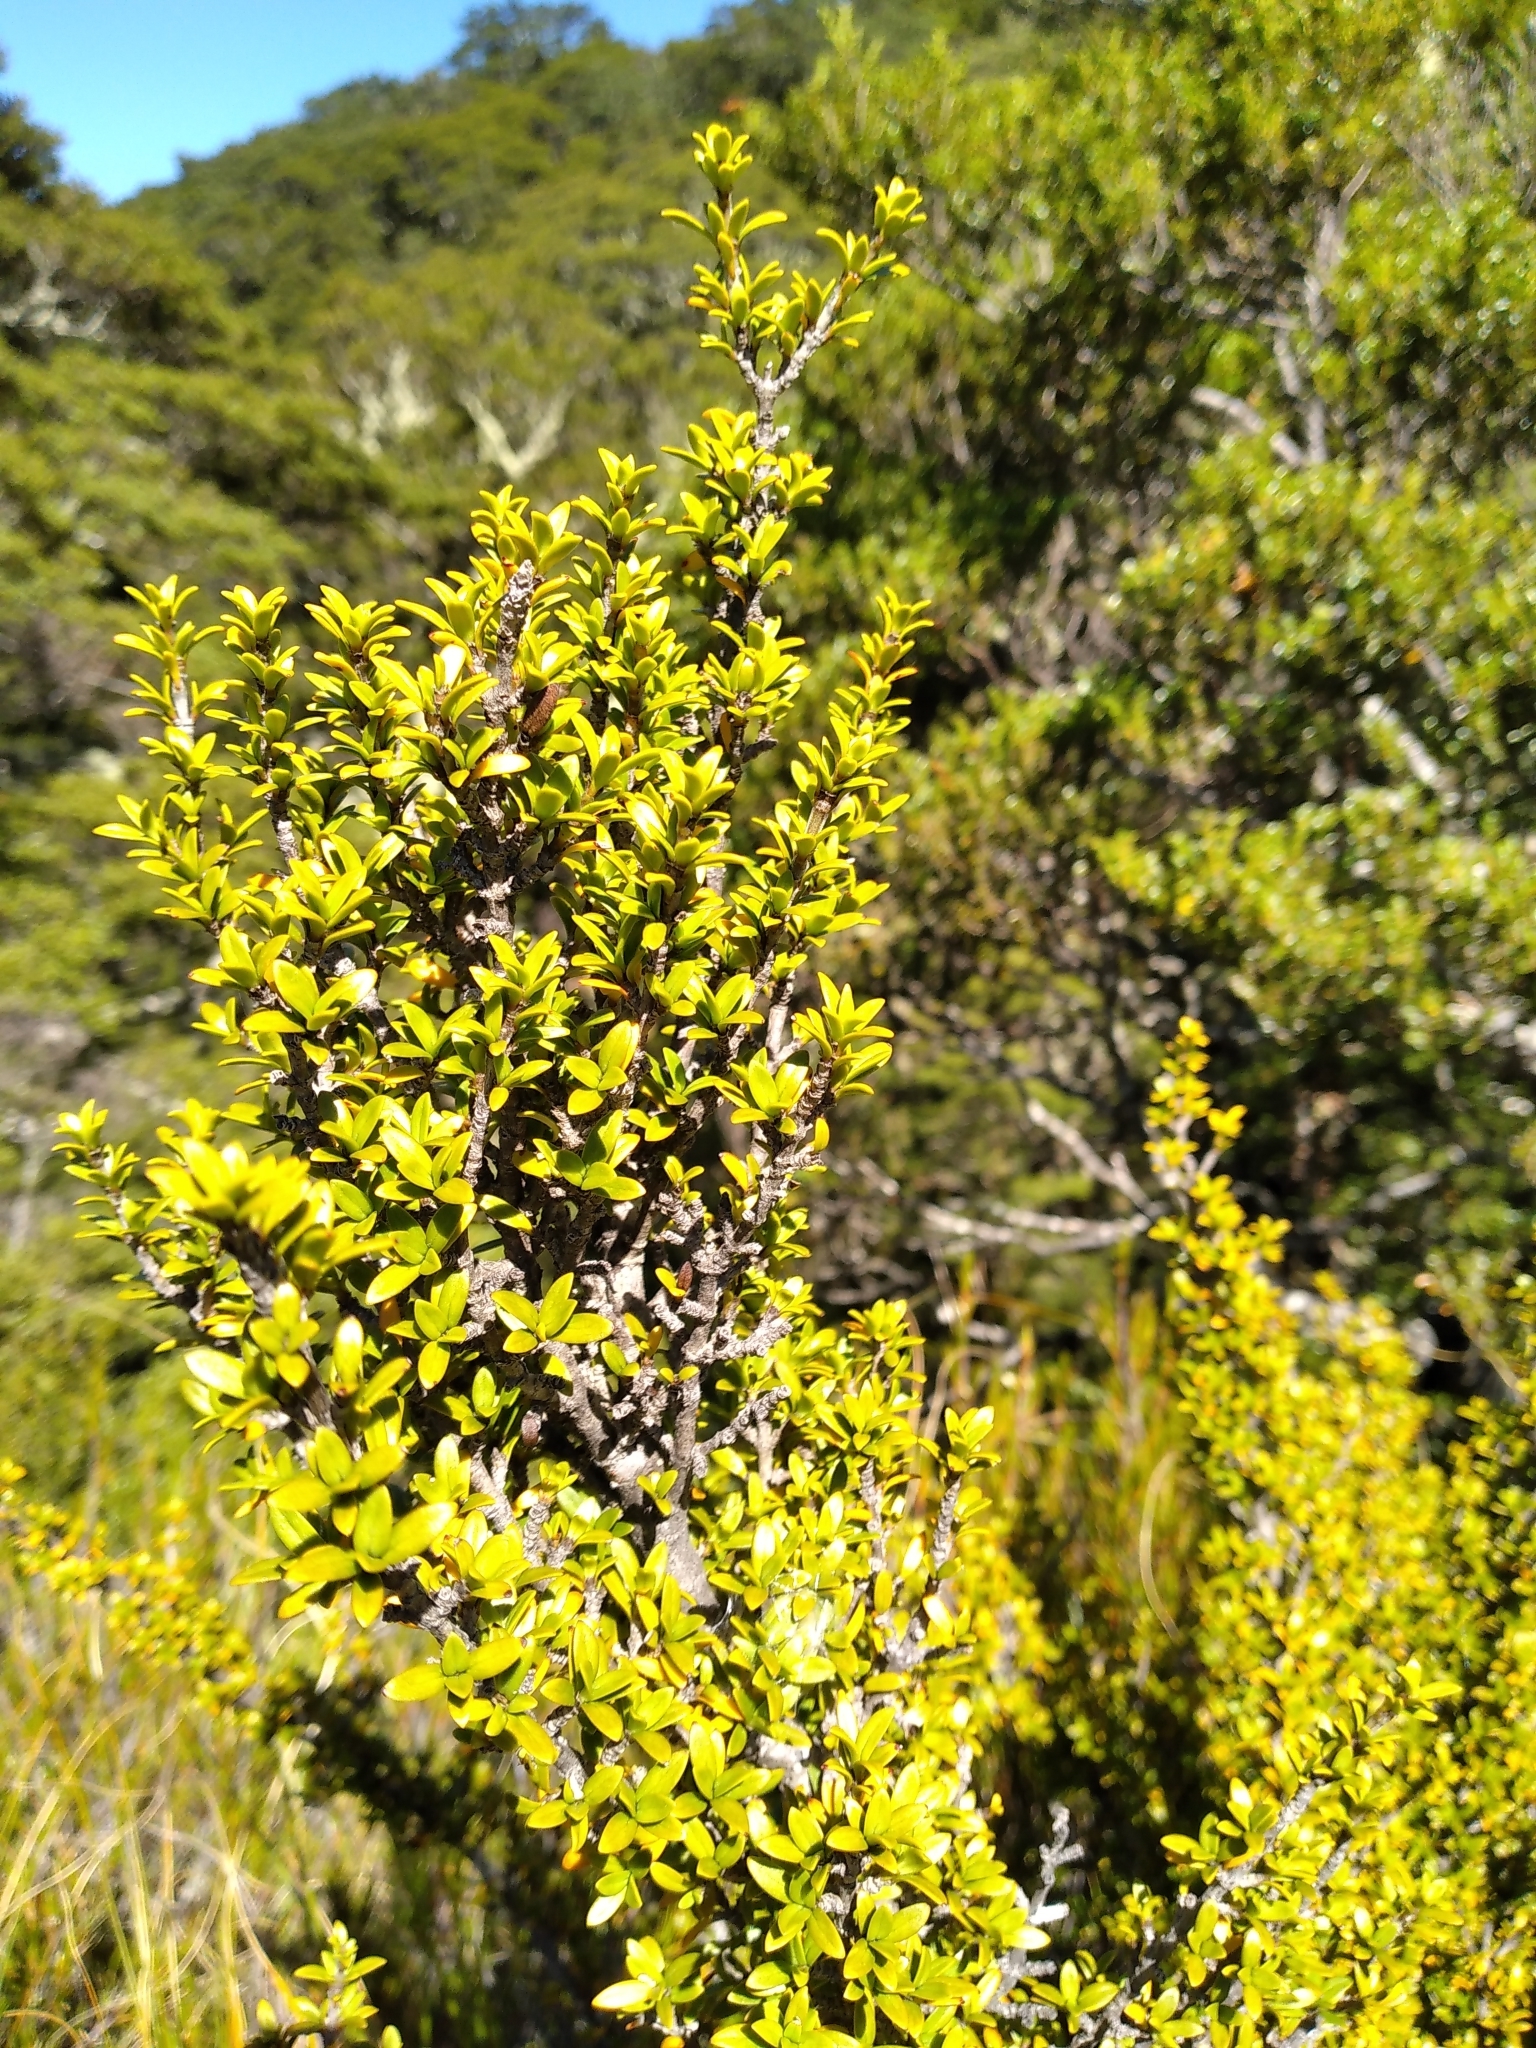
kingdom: Plantae
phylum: Tracheophyta
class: Magnoliopsida
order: Gentianales
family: Rubiaceae
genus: Coprosma
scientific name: Coprosma pseudocuneata
